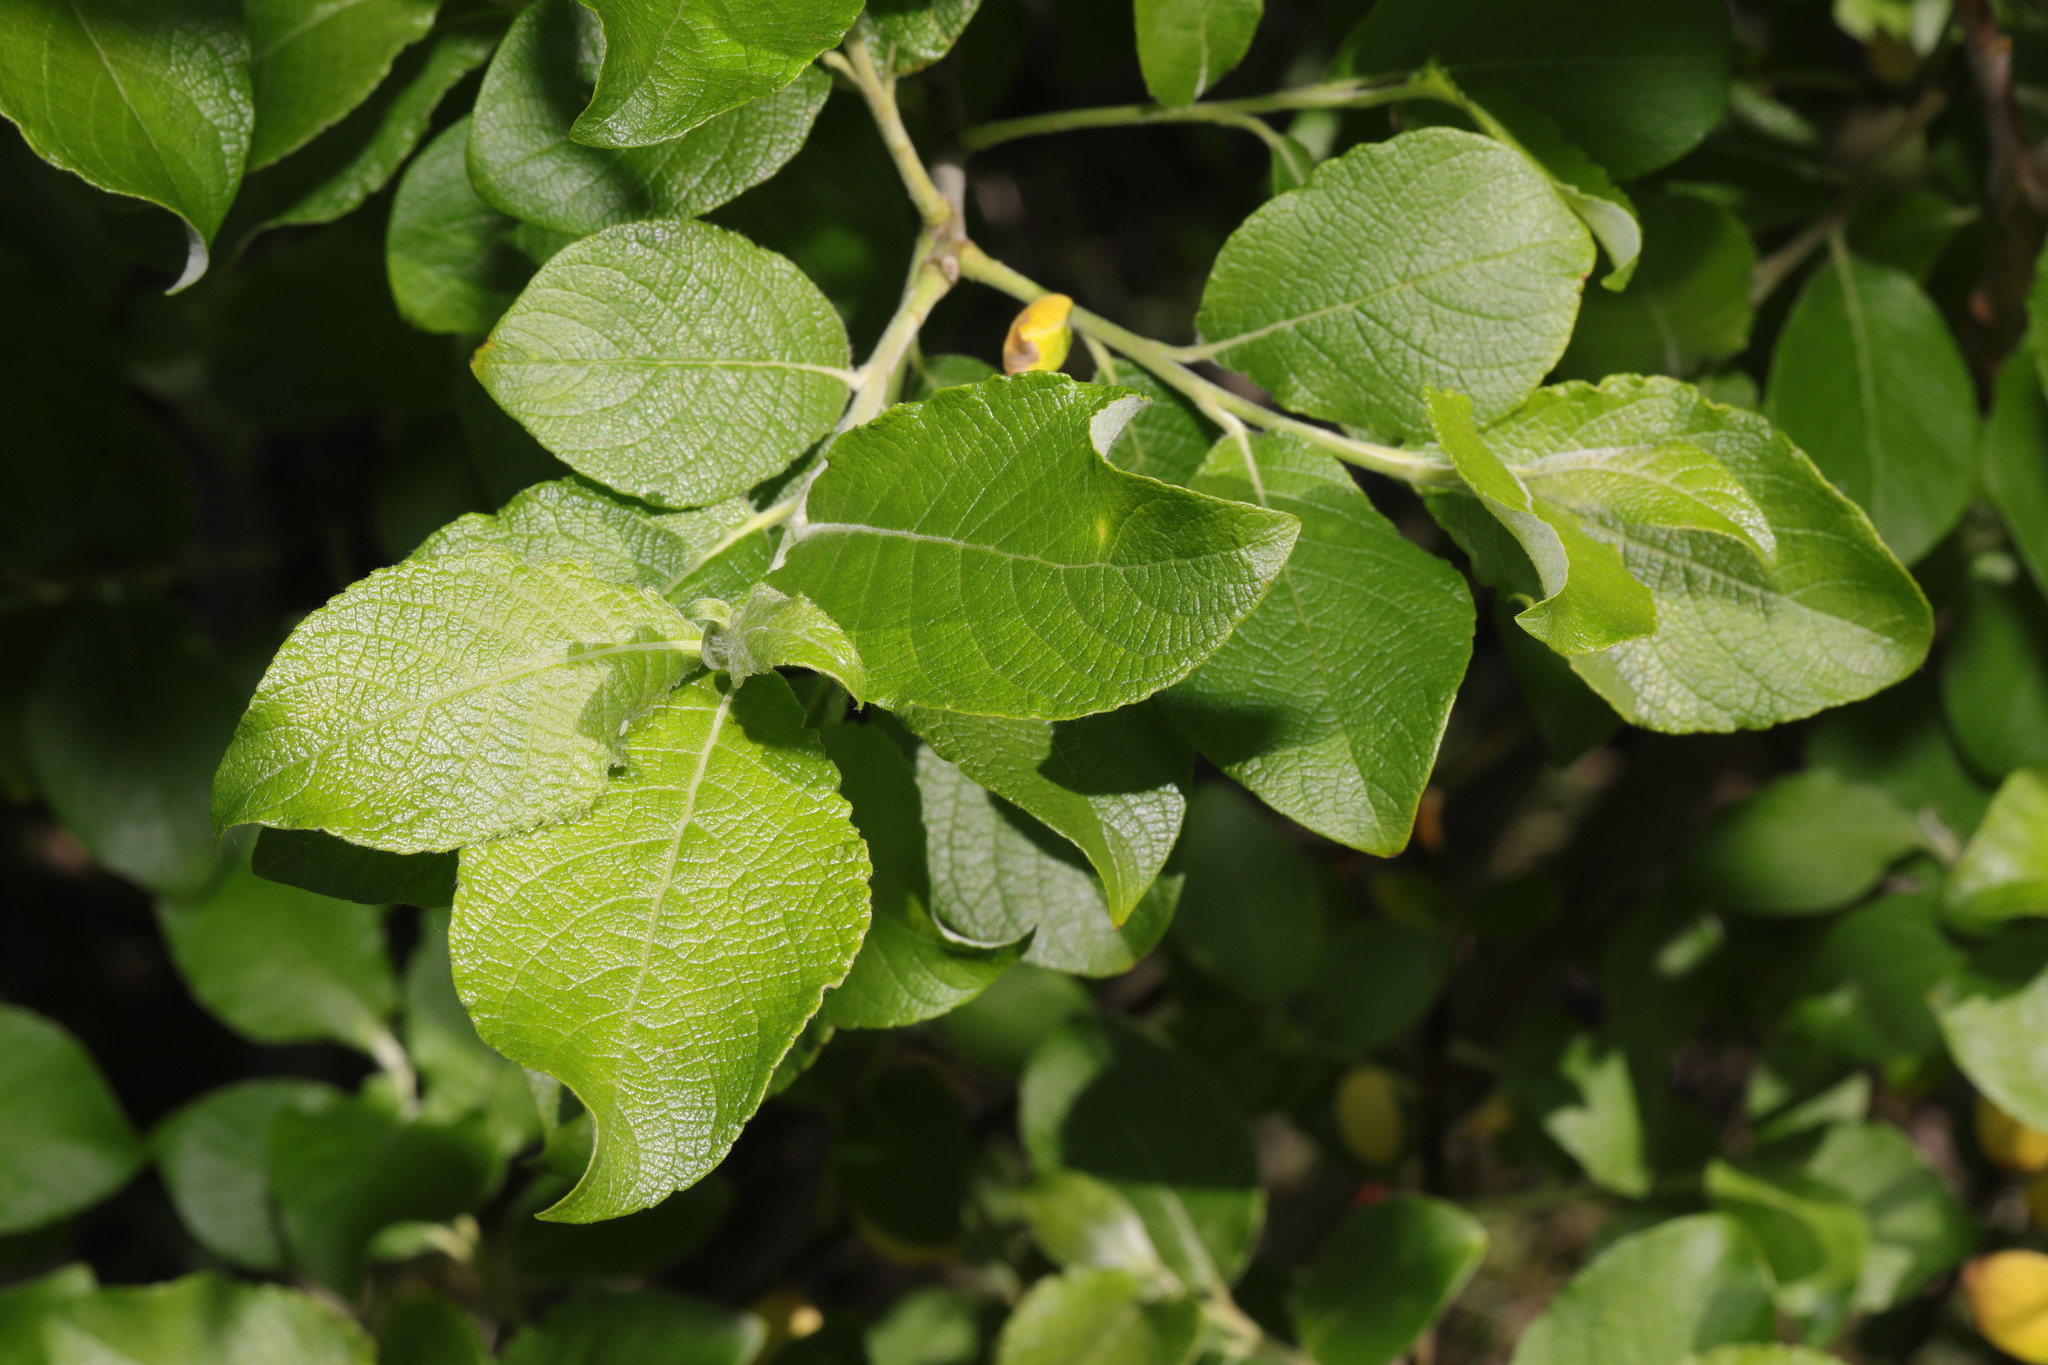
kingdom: Plantae
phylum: Tracheophyta
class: Magnoliopsida
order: Malpighiales
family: Salicaceae
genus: Salix
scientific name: Salix caprea
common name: Goat willow
